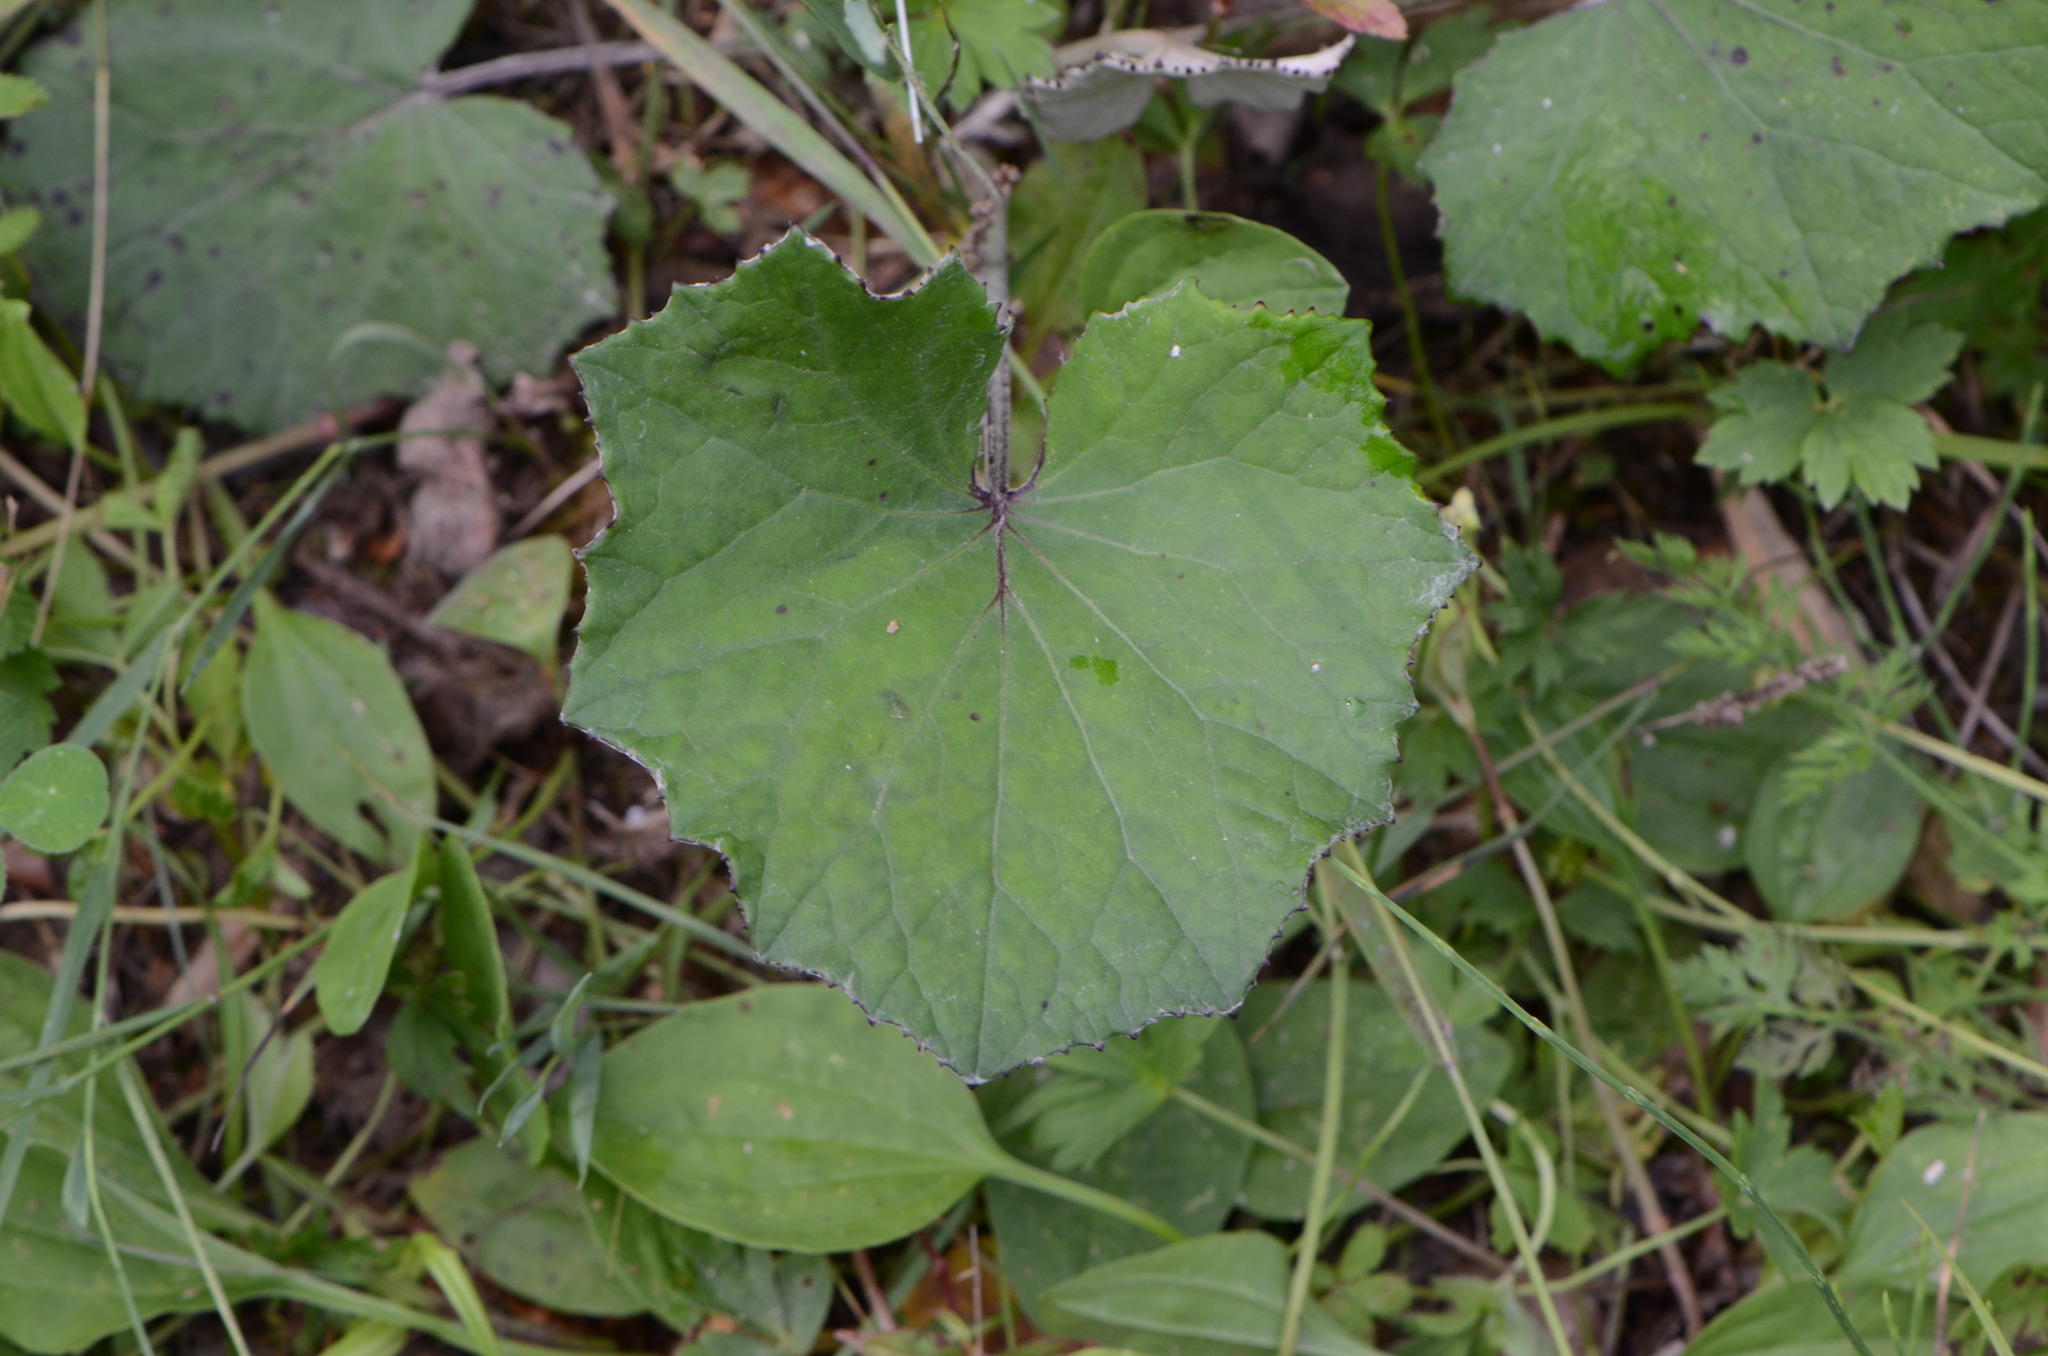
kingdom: Plantae
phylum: Tracheophyta
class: Magnoliopsida
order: Asterales
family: Asteraceae
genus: Tussilago
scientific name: Tussilago farfara
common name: Coltsfoot
